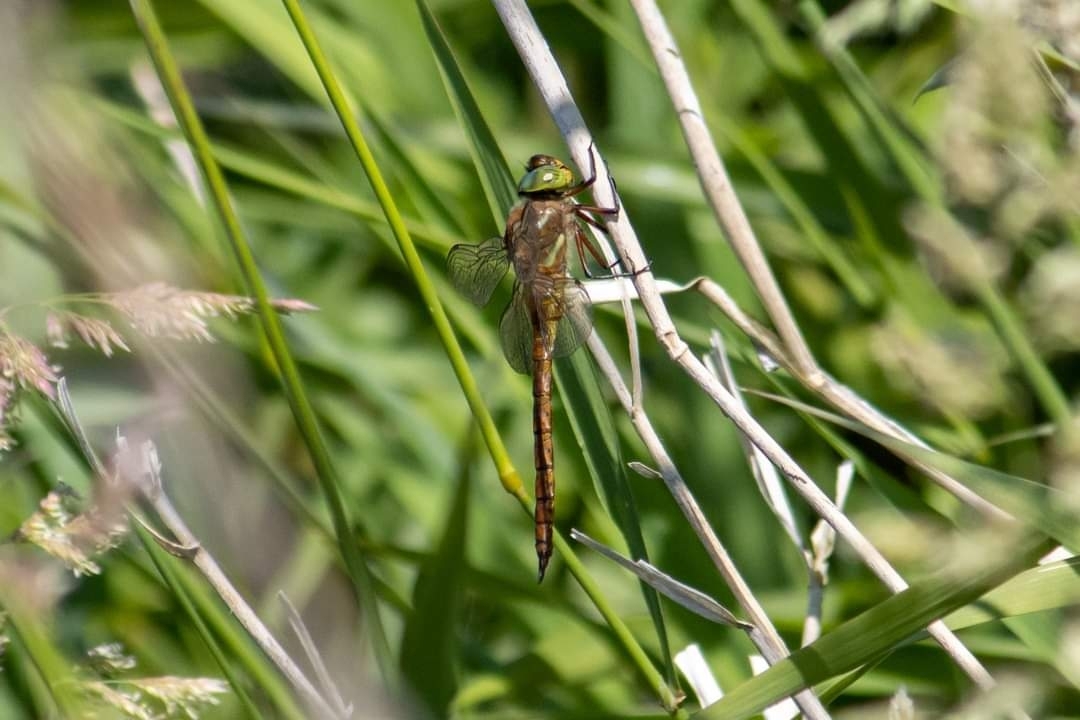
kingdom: Animalia
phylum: Arthropoda
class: Insecta
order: Odonata
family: Aeshnidae
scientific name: Aeshnidae
